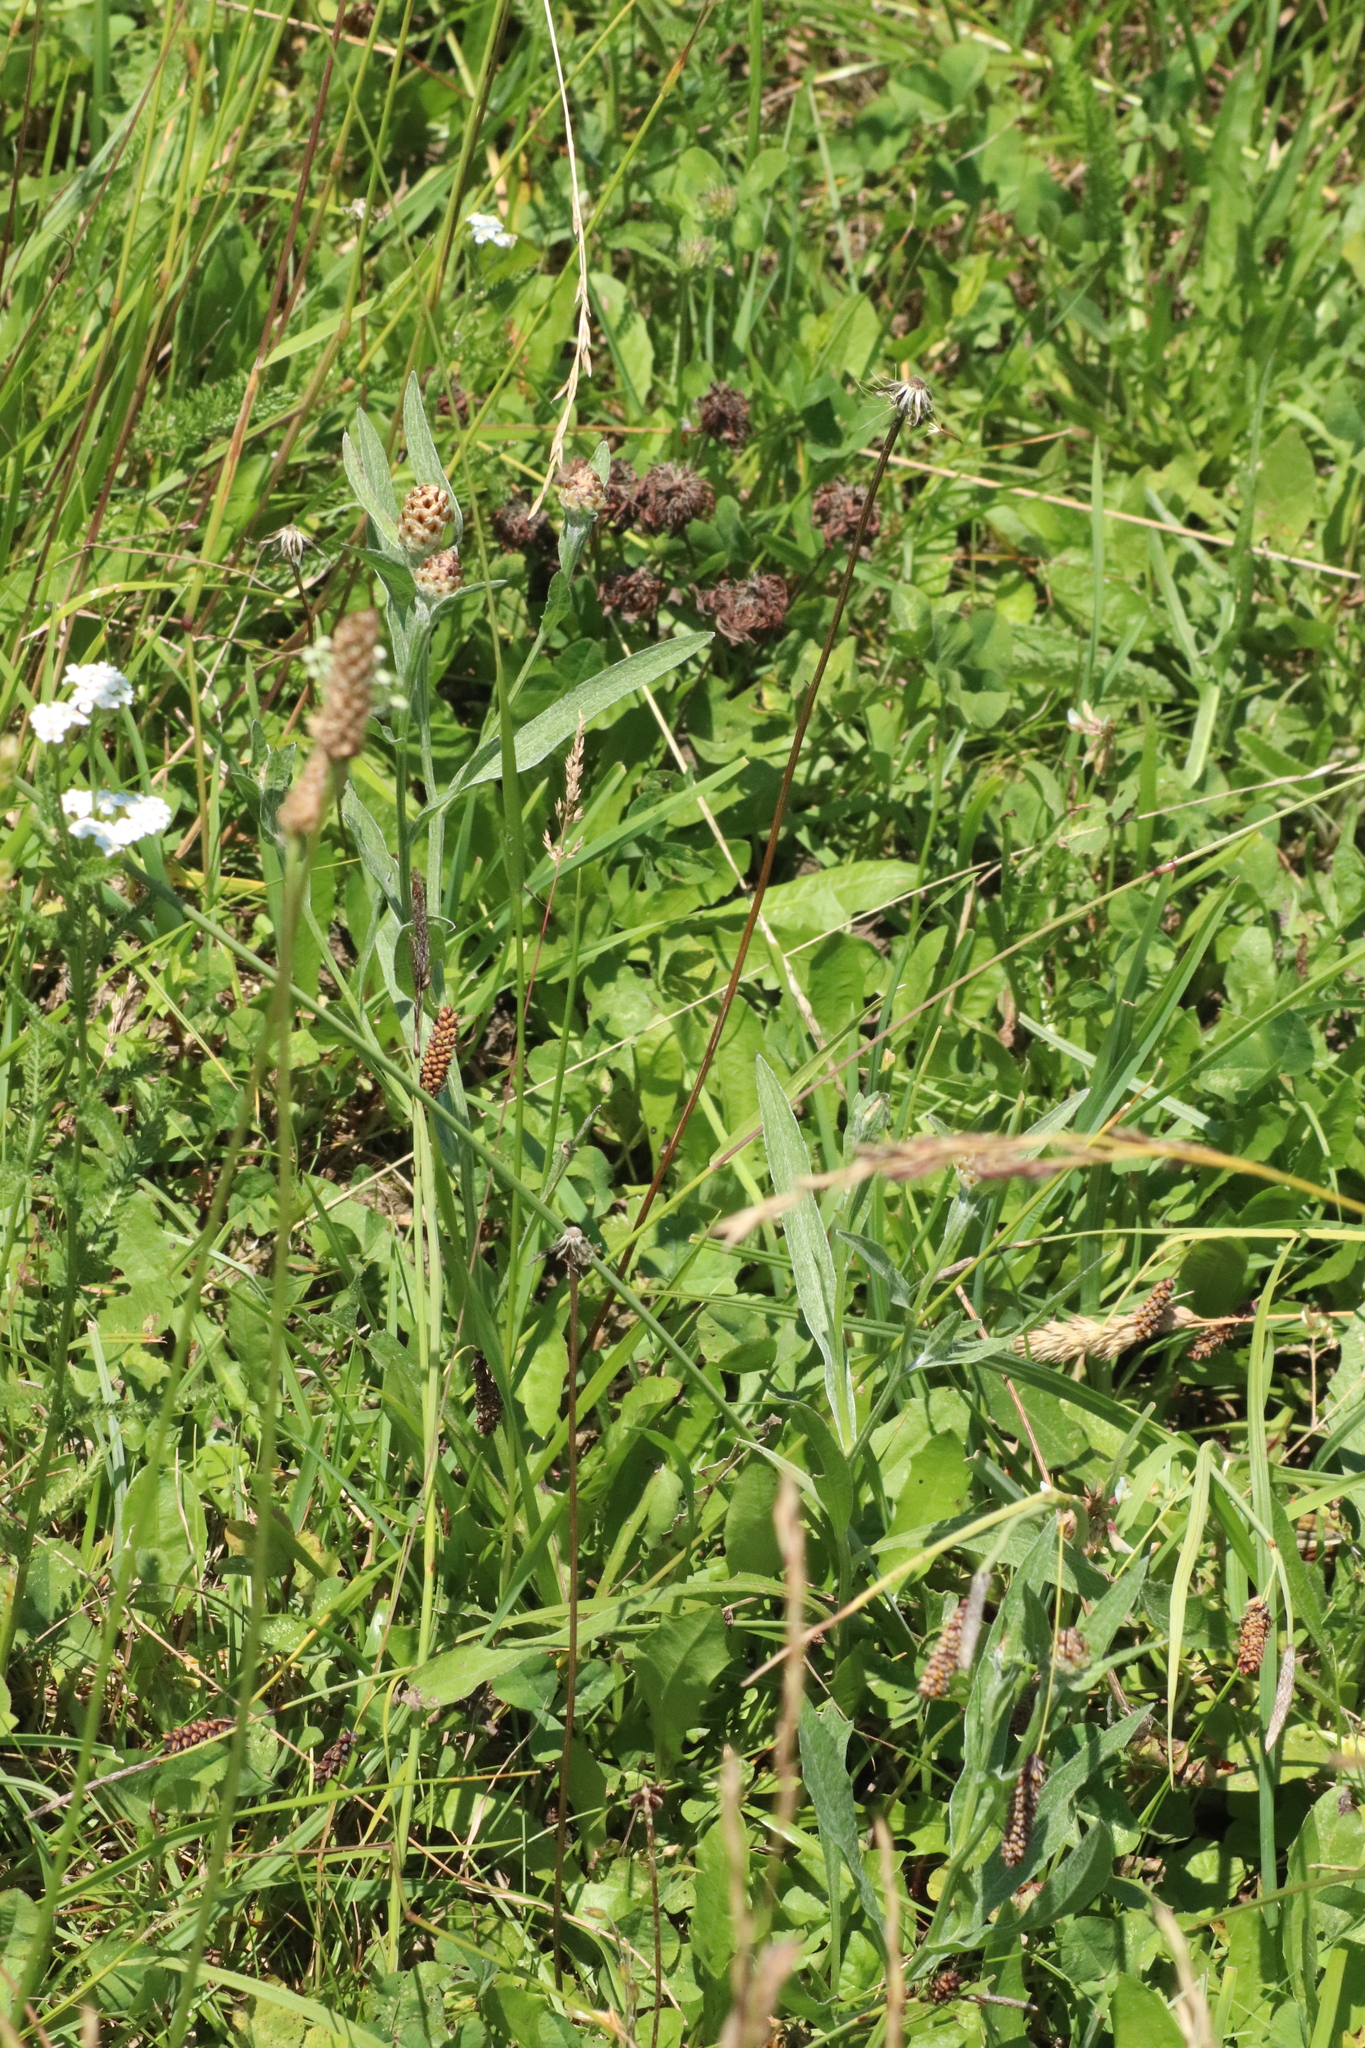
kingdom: Plantae
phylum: Tracheophyta
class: Magnoliopsida
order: Asterales
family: Asteraceae
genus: Centaurea
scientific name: Centaurea jacea
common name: Brown knapweed
